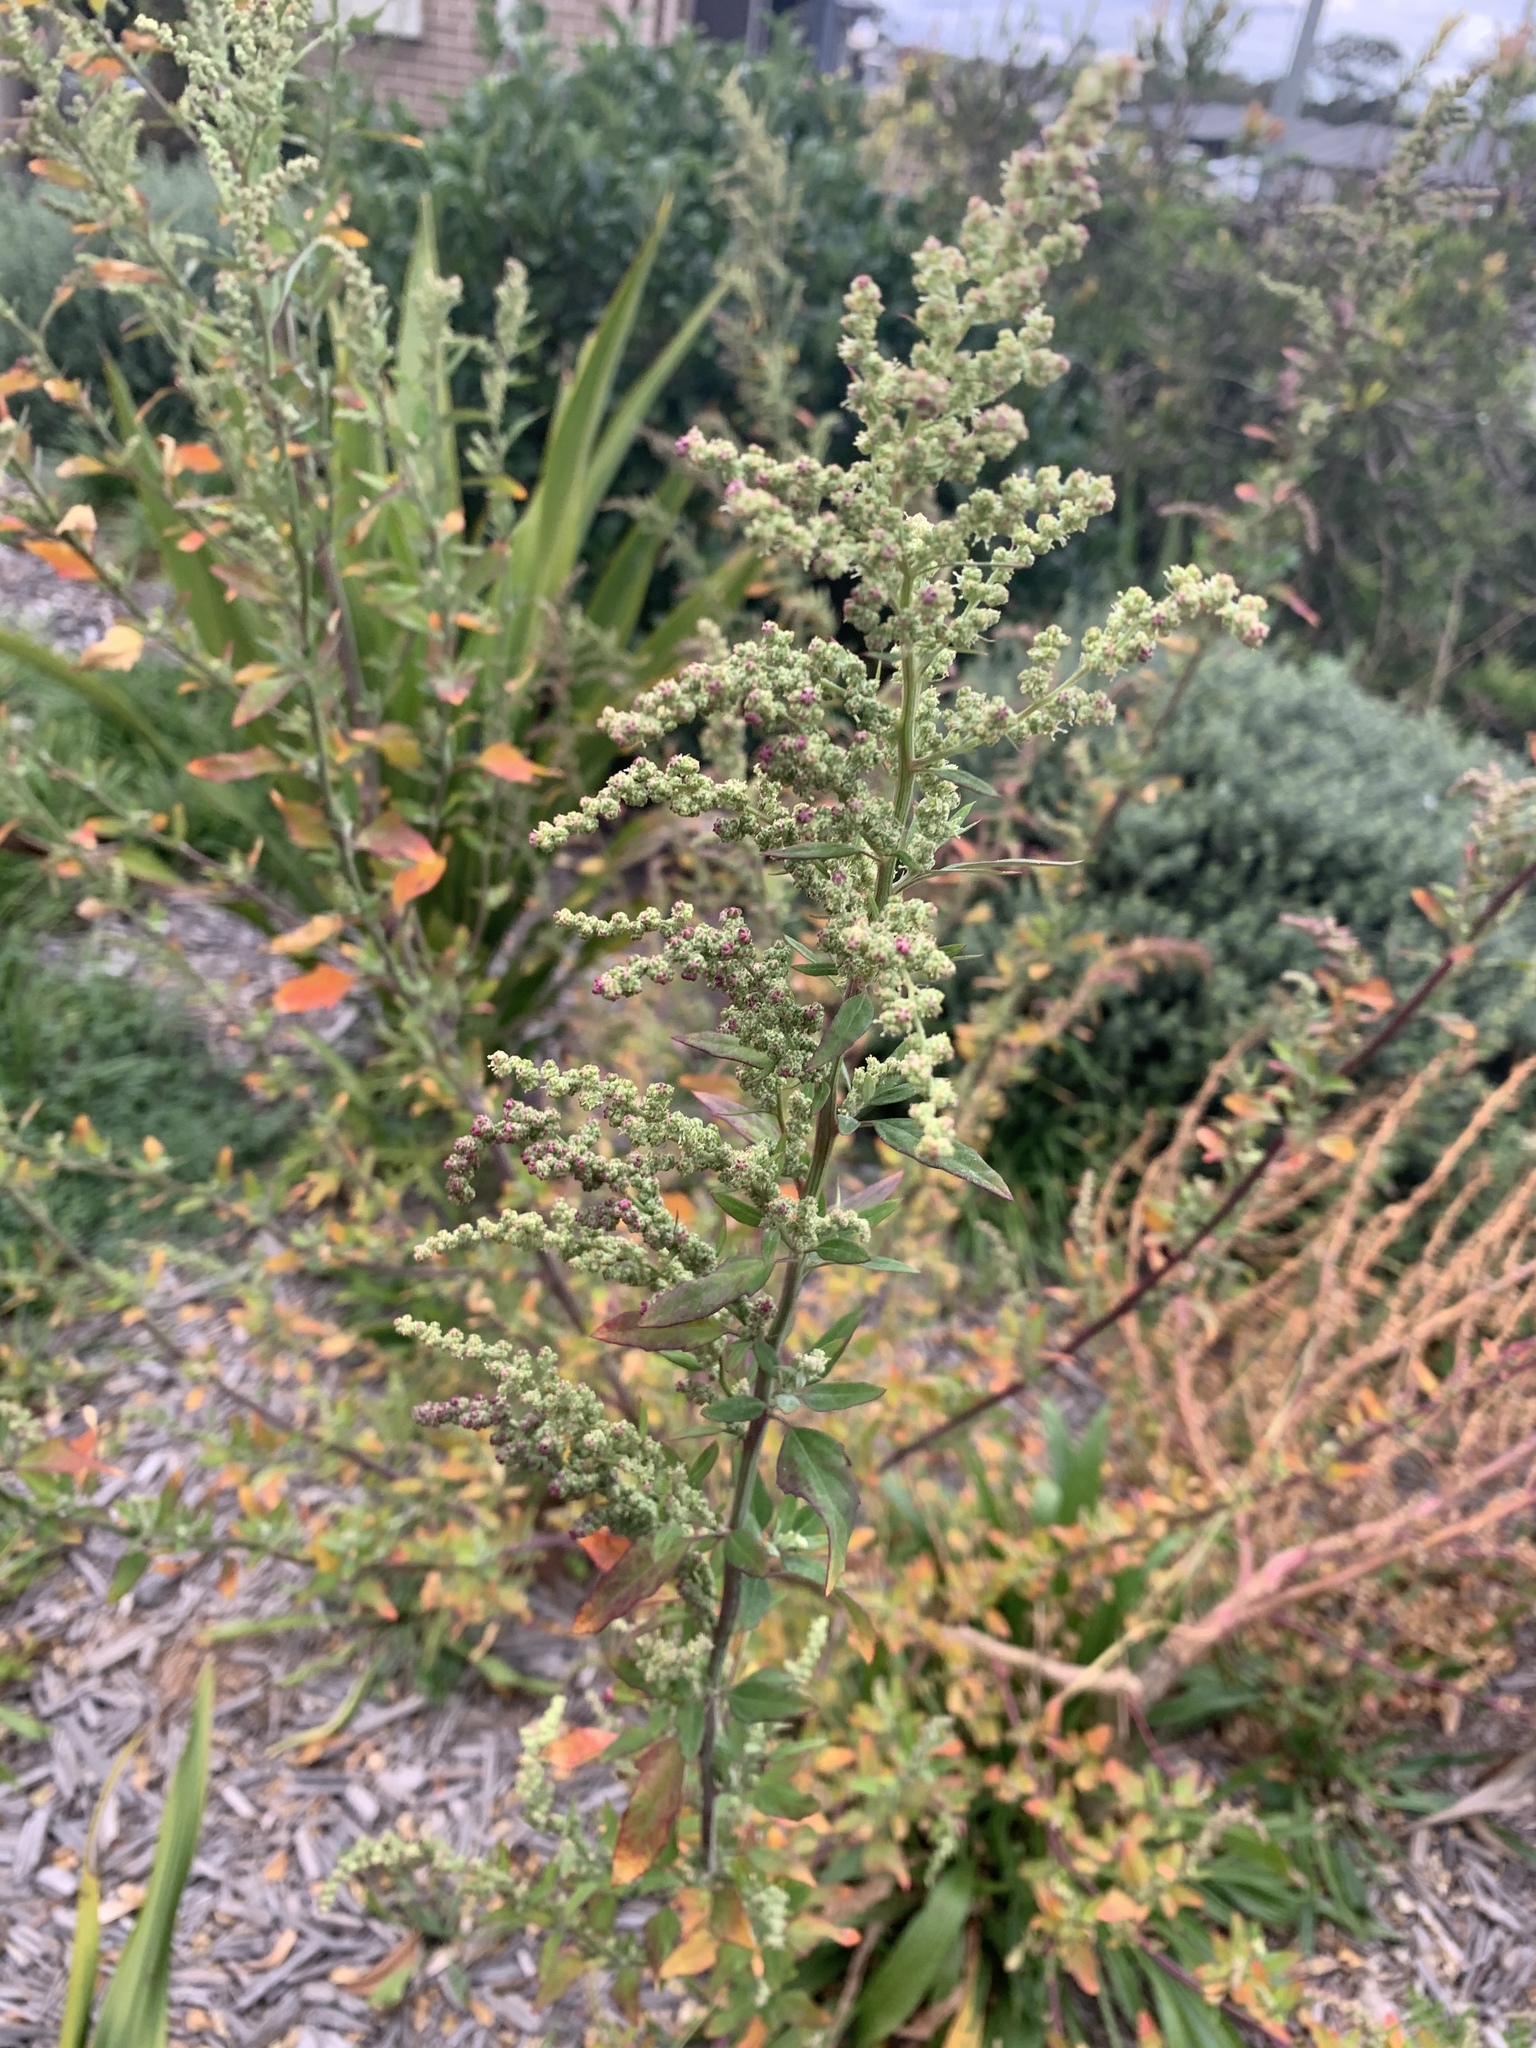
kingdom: Plantae
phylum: Tracheophyta
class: Magnoliopsida
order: Caryophyllales
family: Amaranthaceae
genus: Chenopodium
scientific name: Chenopodium album
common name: Fat-hen
